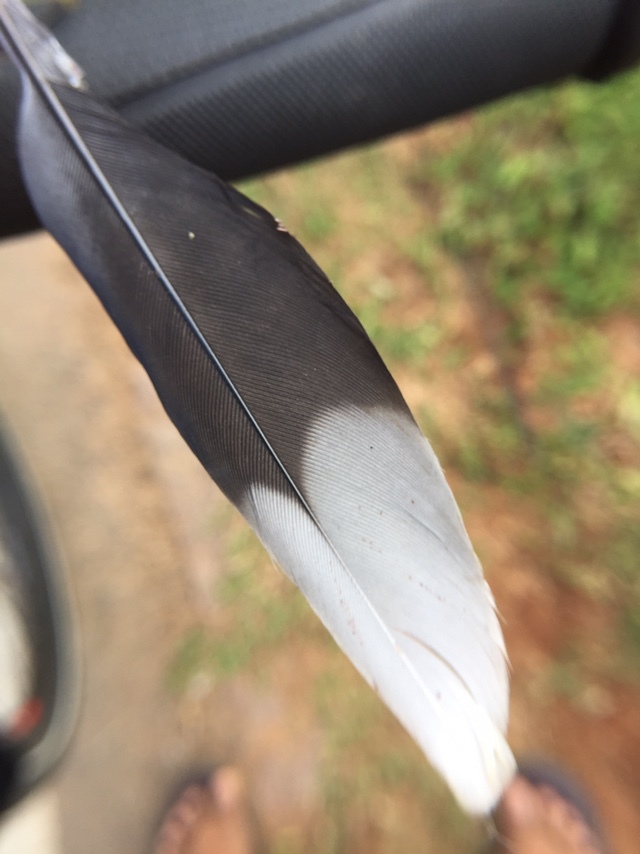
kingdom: Animalia
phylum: Chordata
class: Aves
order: Columbiformes
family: Columbidae
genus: Spilopelia
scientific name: Spilopelia chinensis
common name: Spotted dove
